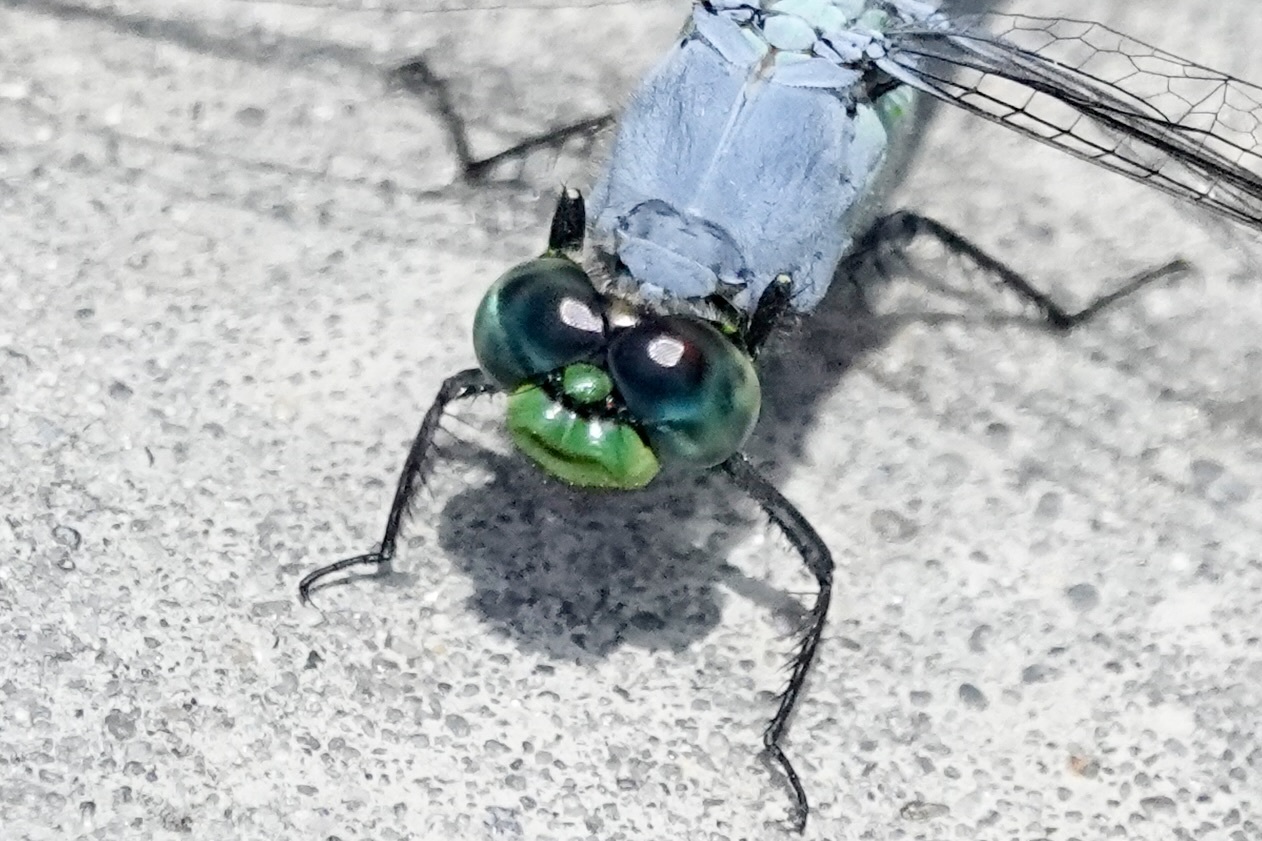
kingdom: Animalia
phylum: Arthropoda
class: Insecta
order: Odonata
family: Libellulidae
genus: Erythemis
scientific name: Erythemis simplicicollis
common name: Eastern pondhawk
